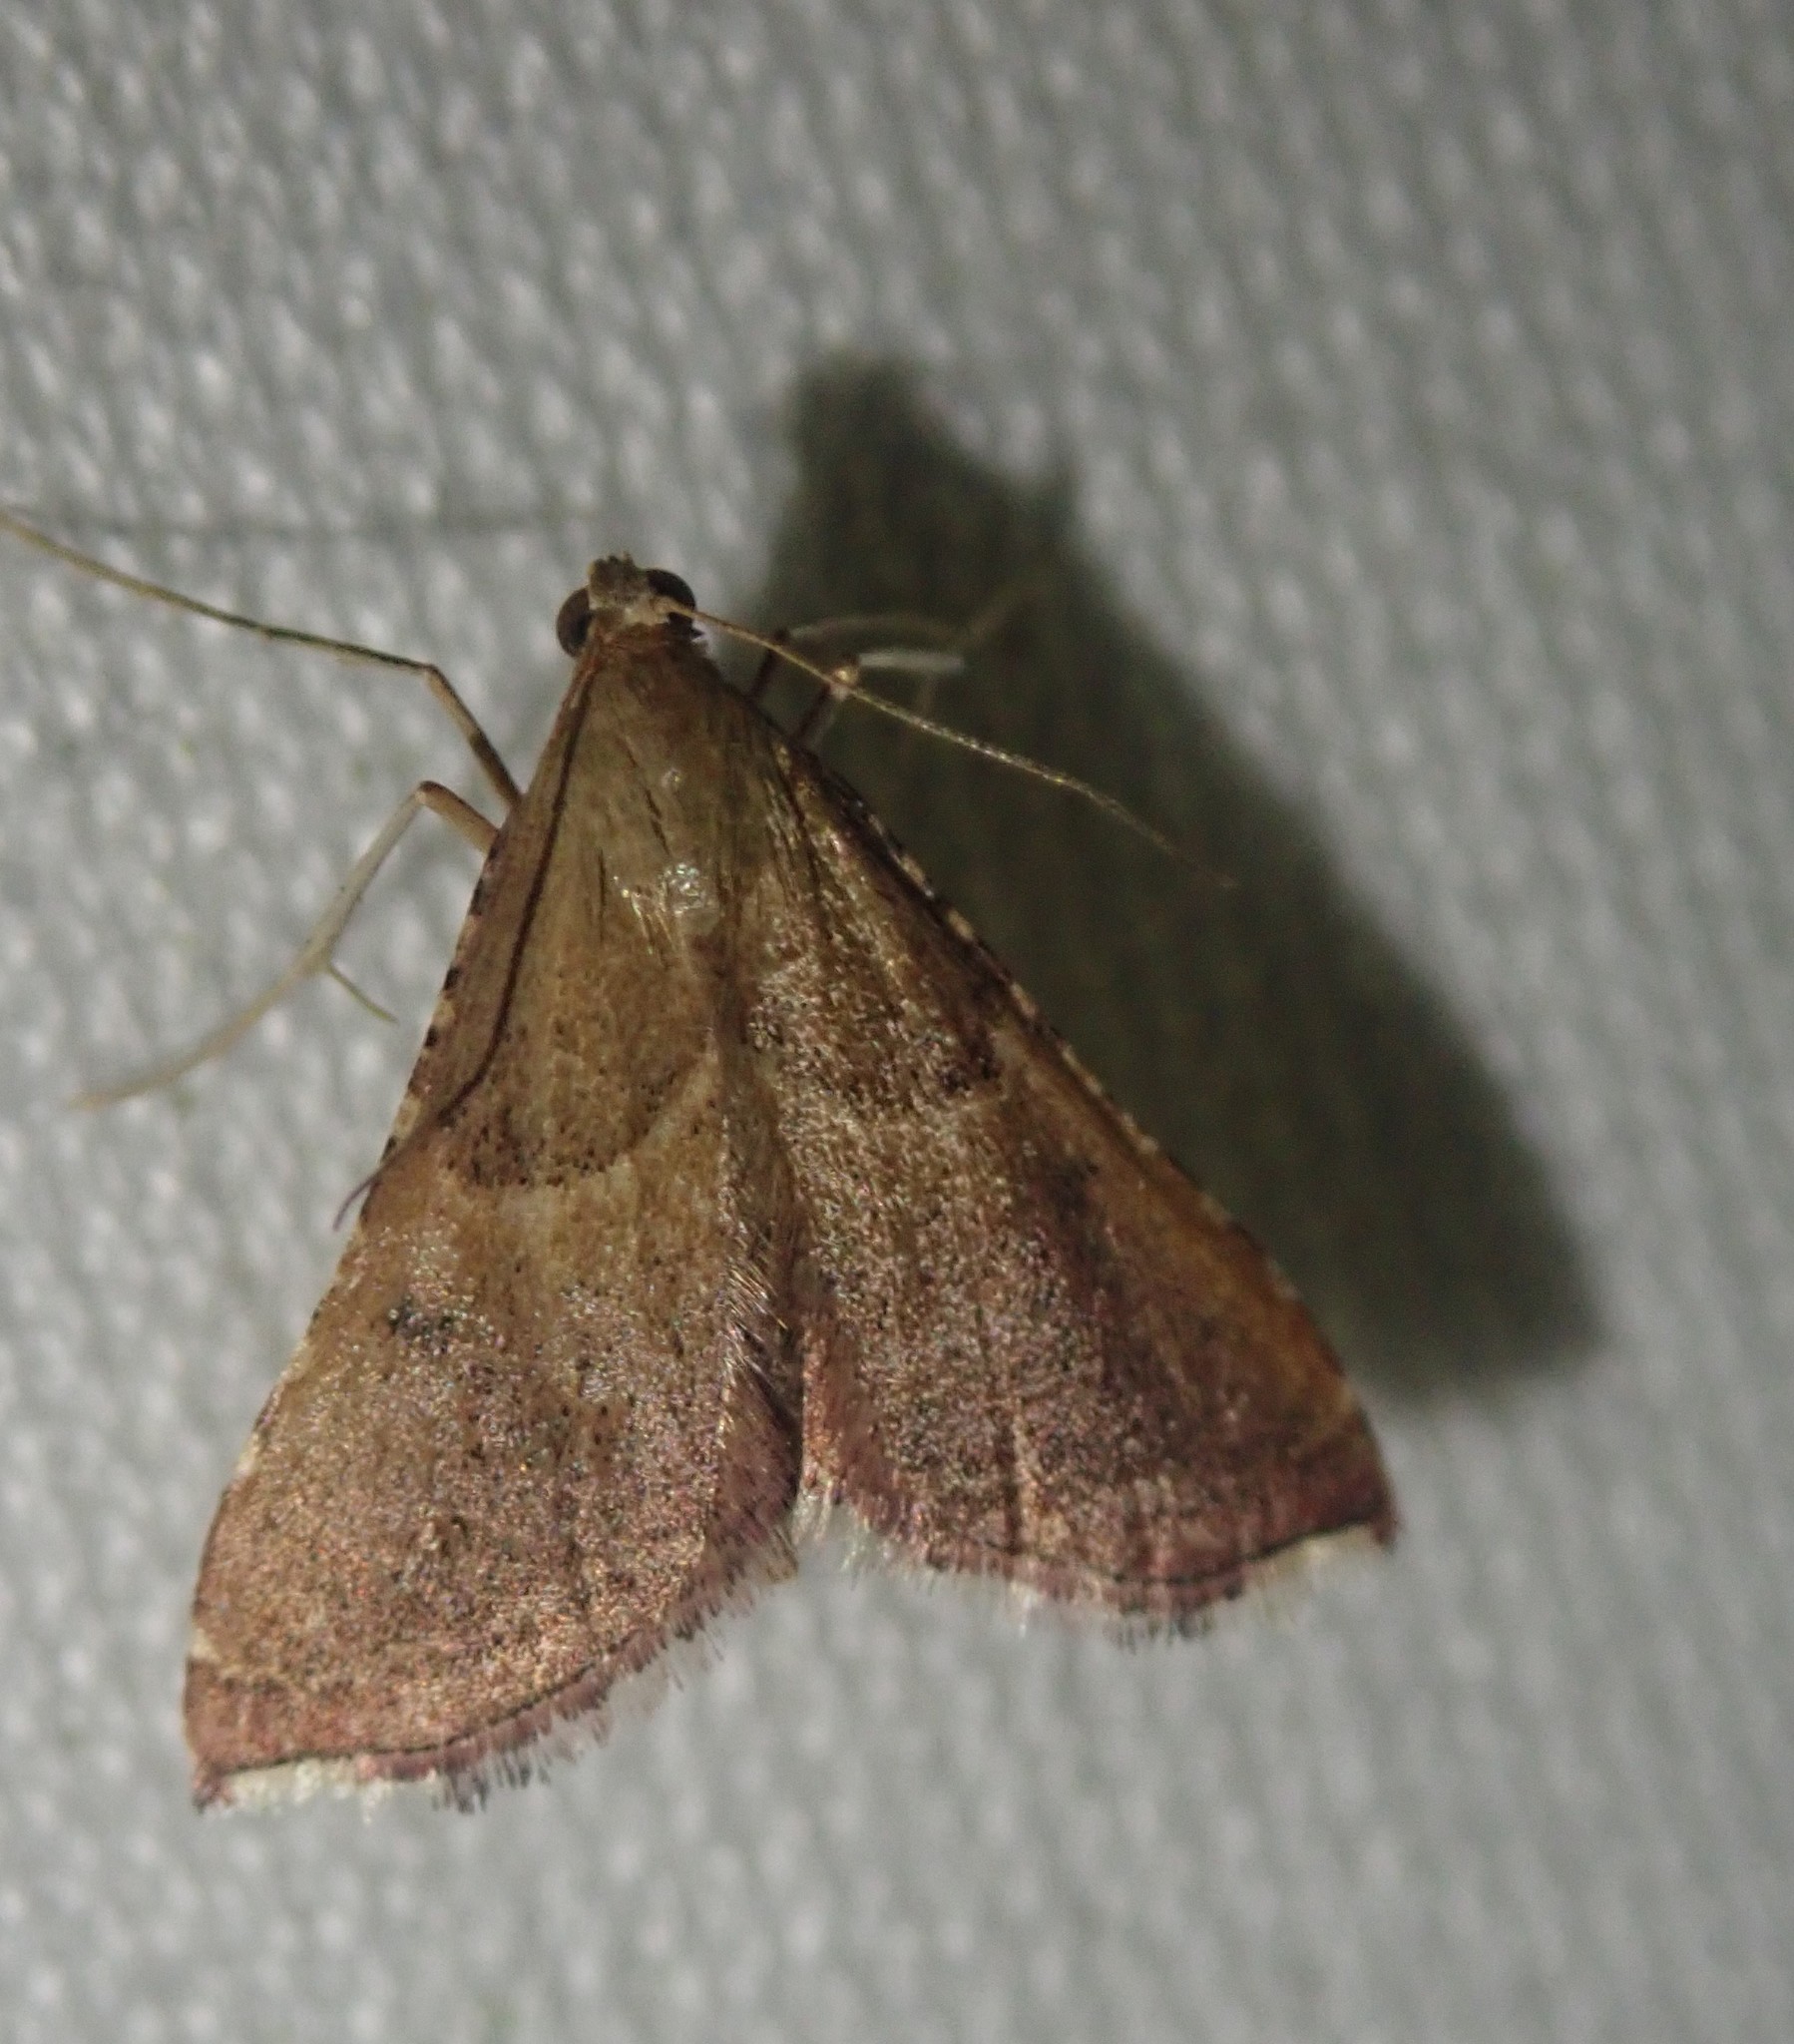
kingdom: Animalia
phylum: Arthropoda
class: Insecta
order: Lepidoptera
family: Pyralidae
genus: Endotricha
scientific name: Endotricha flammealis
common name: Rosy tabby
